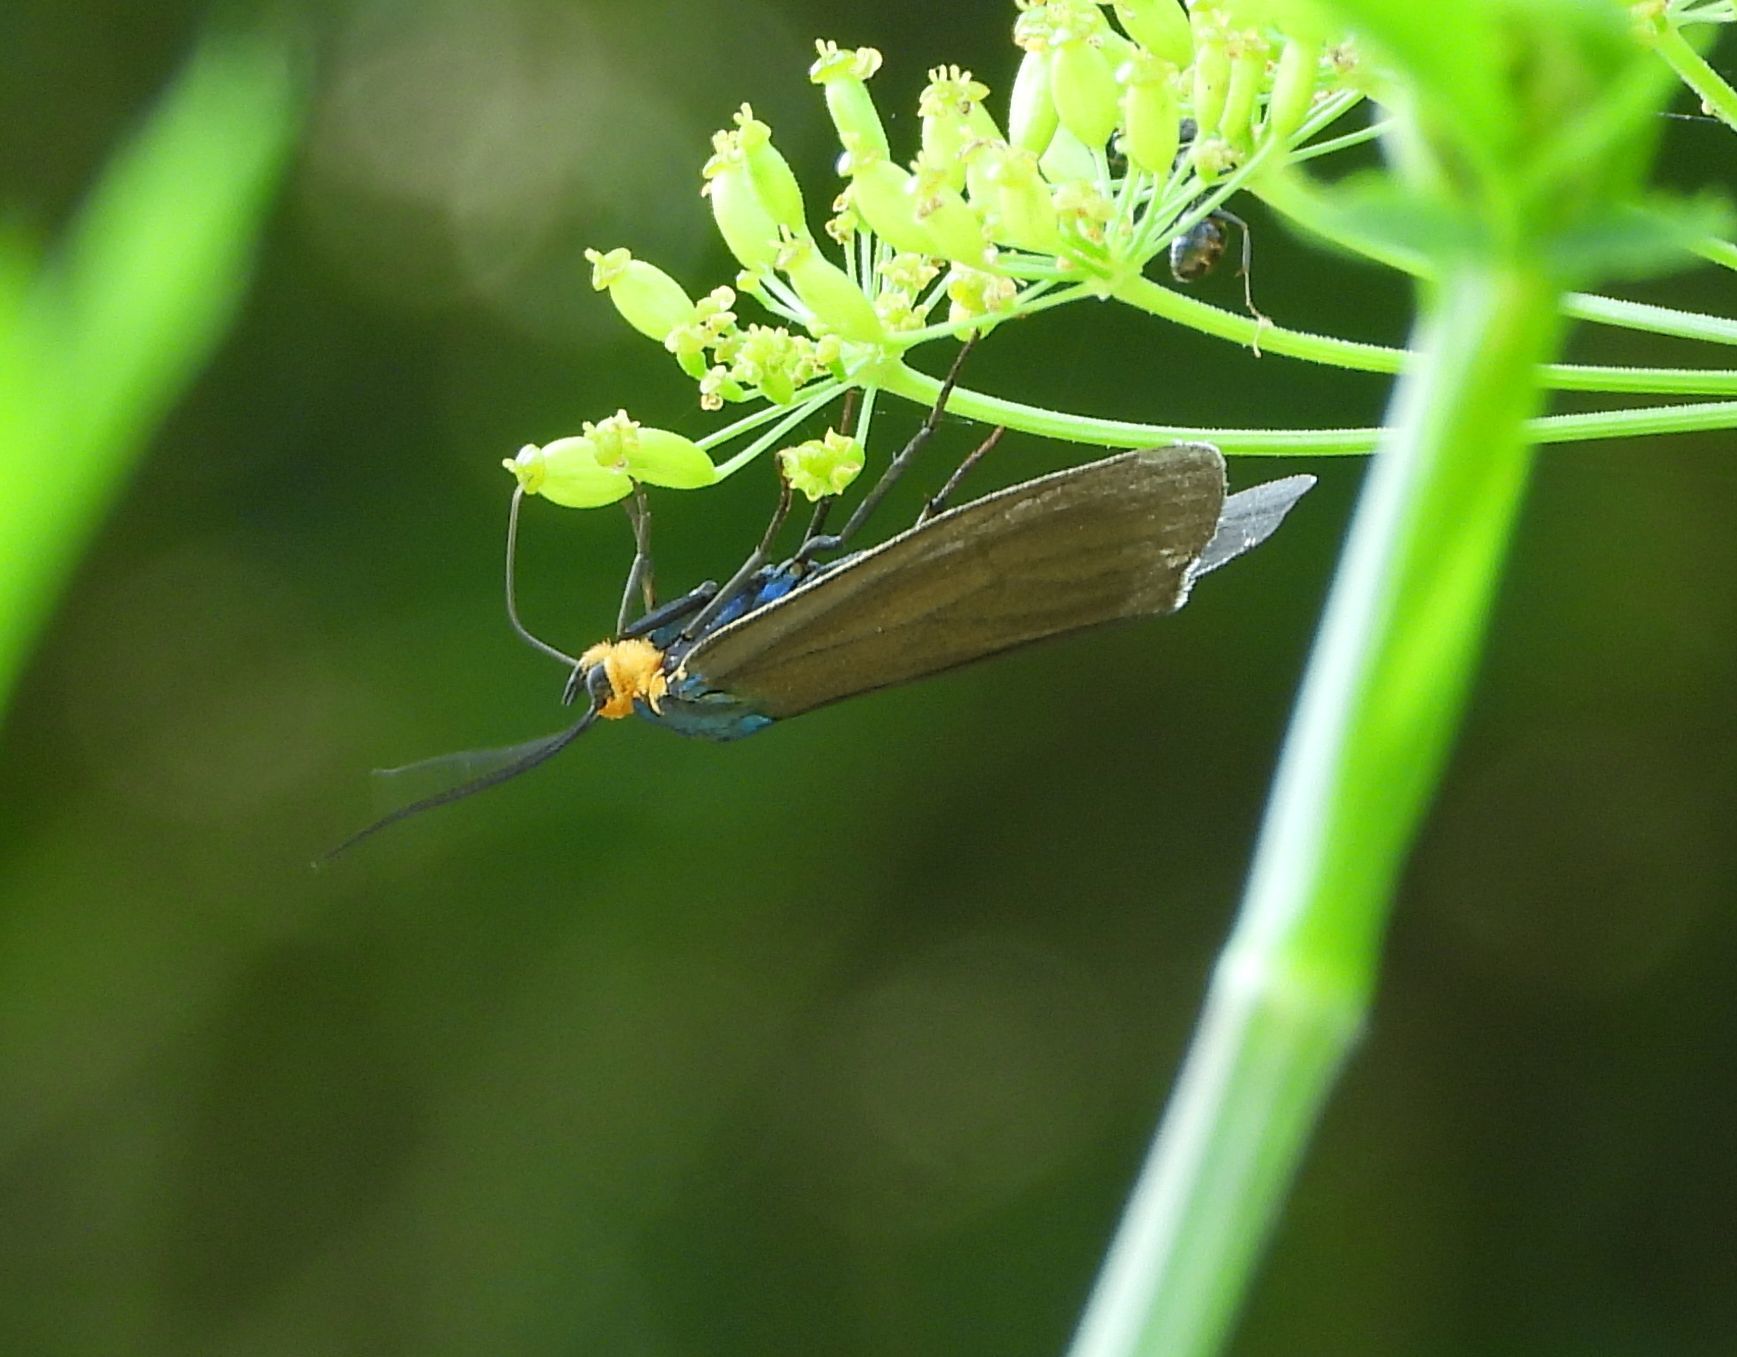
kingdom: Animalia
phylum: Arthropoda
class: Insecta
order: Lepidoptera
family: Erebidae
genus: Ctenucha
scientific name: Ctenucha virginica
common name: Virginia ctenucha moth
